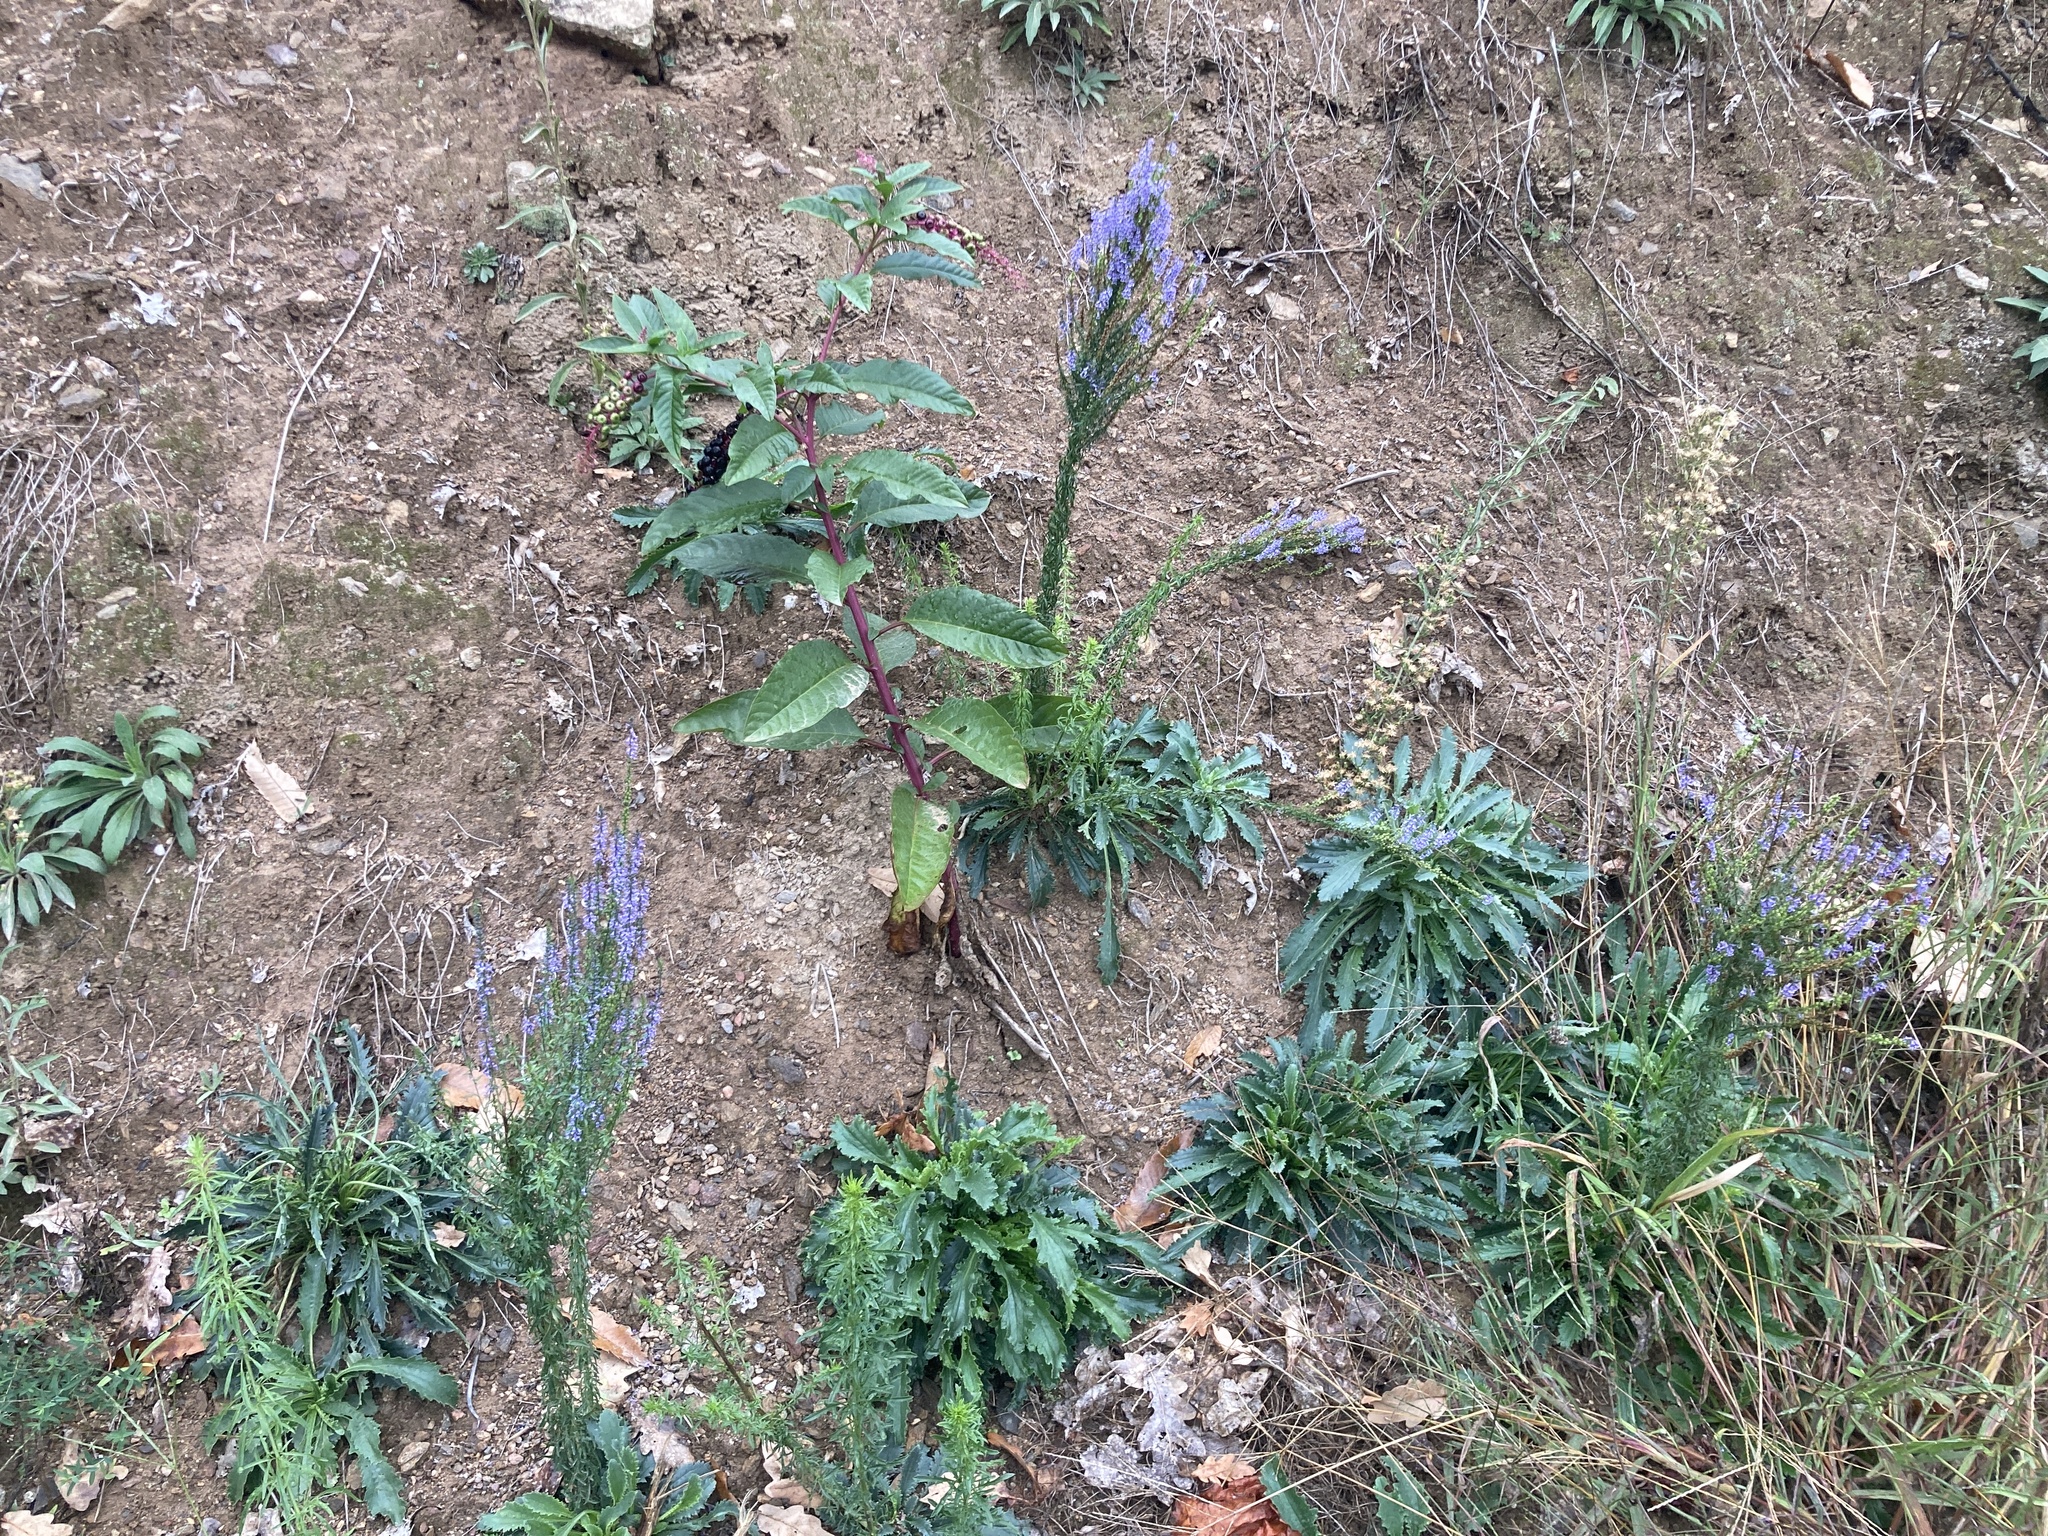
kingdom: Plantae
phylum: Tracheophyta
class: Magnoliopsida
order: Lamiales
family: Plantaginaceae
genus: Anarrhinum
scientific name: Anarrhinum bellidifolium
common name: Daisy-leaved toadflax
